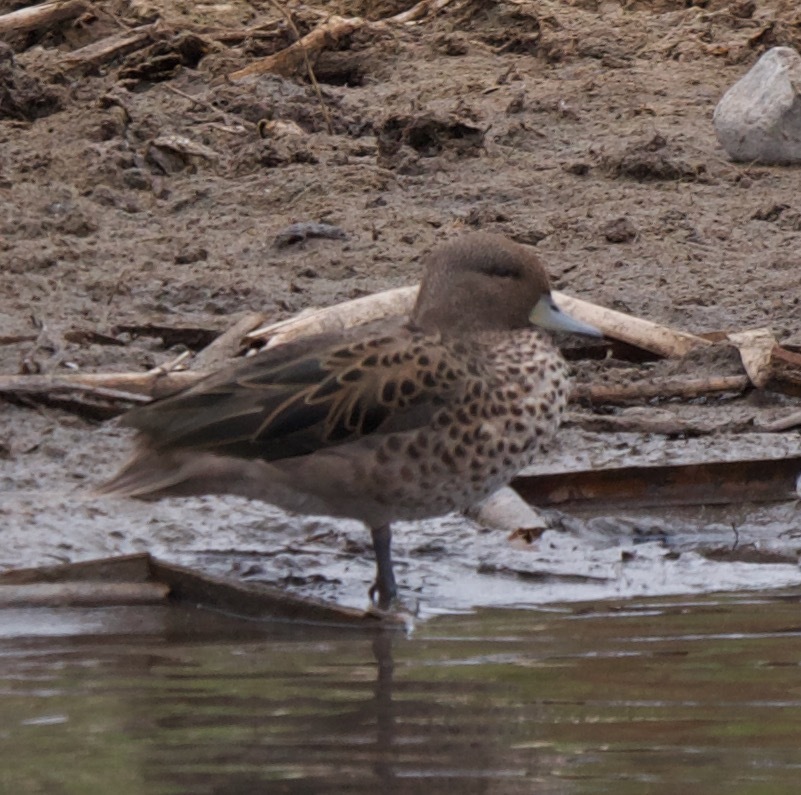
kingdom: Animalia
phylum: Chordata
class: Aves
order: Anseriformes
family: Anatidae
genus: Anas
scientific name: Anas flavirostris
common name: Yellow-billed teal
